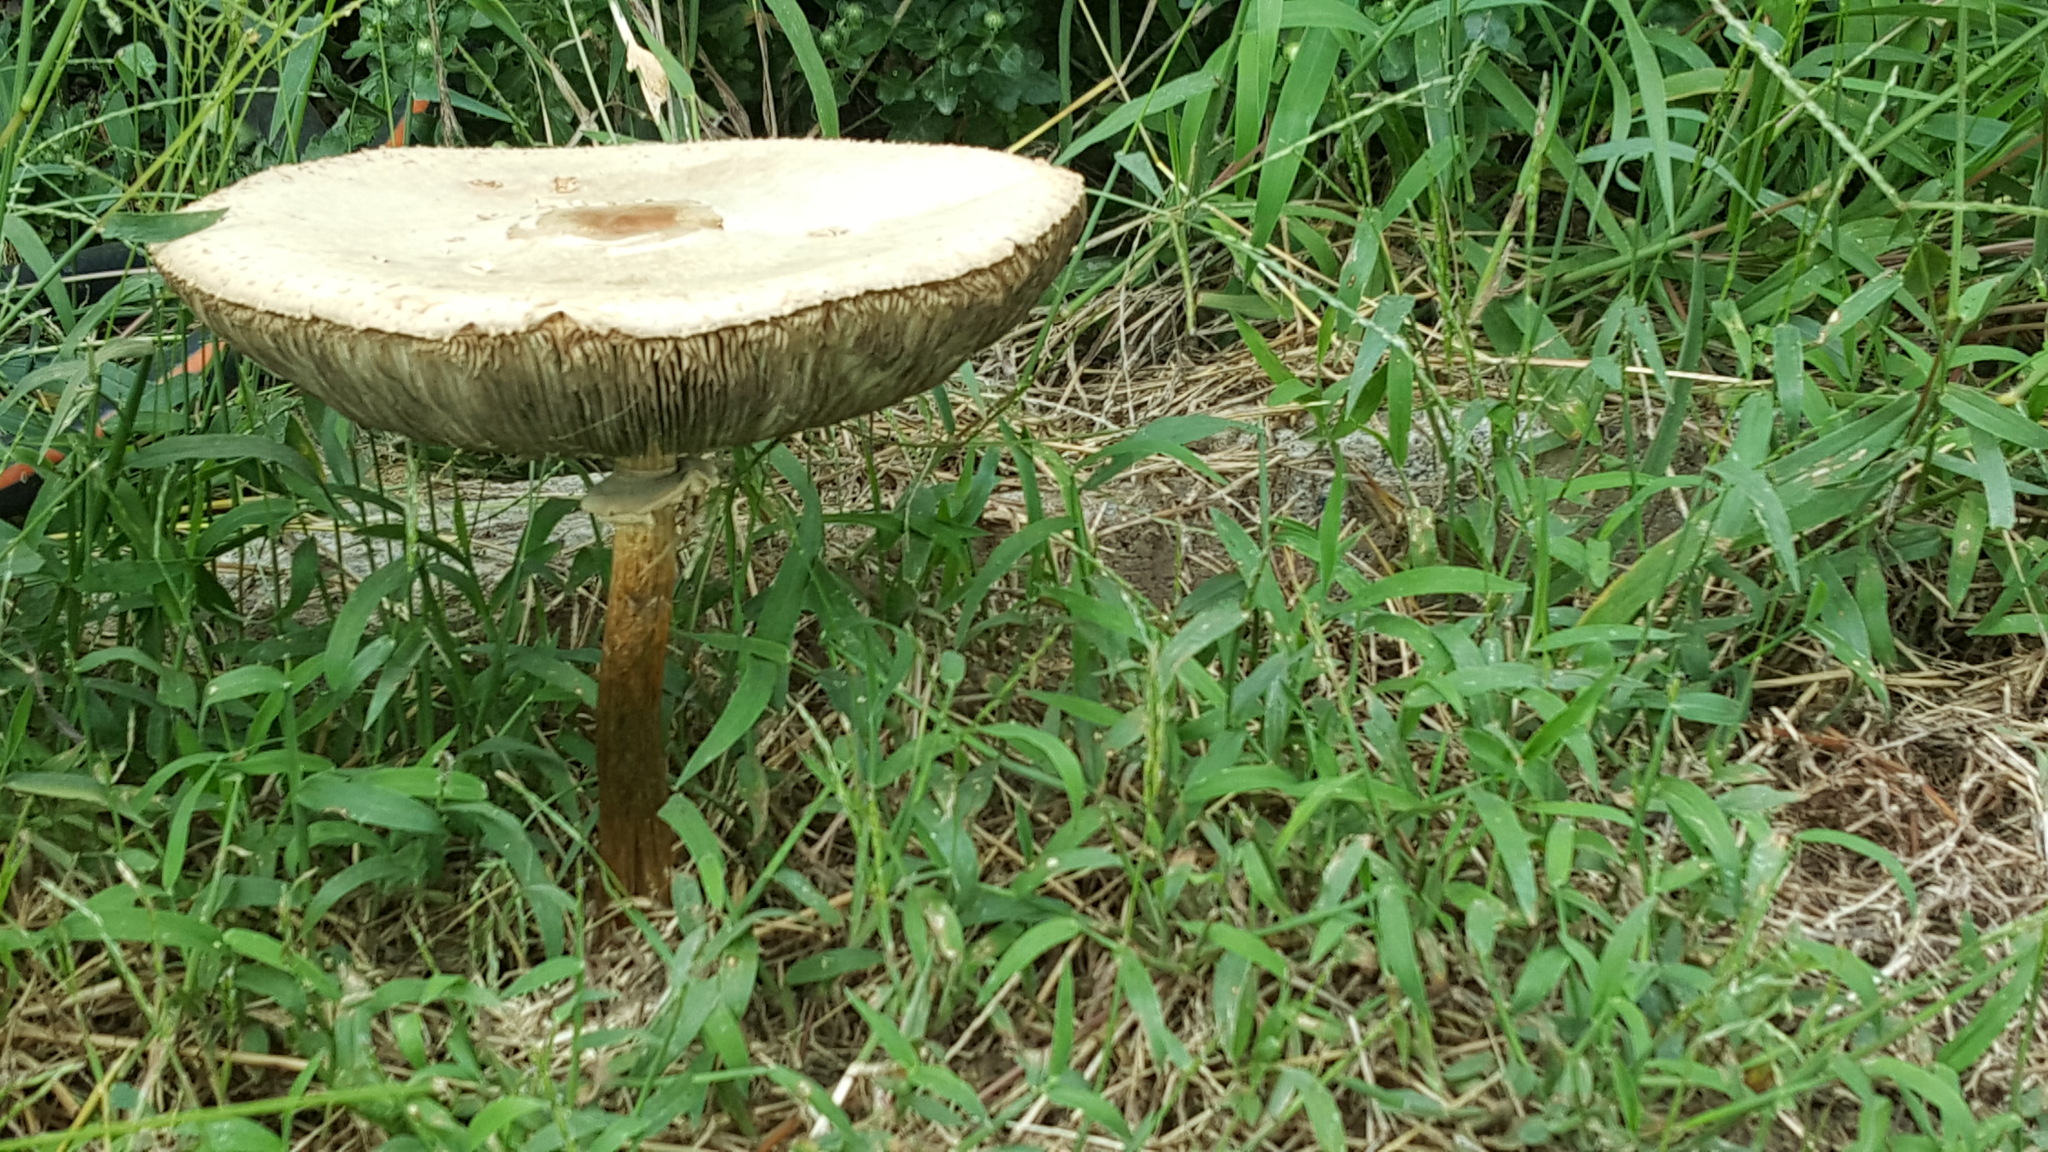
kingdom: Fungi
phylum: Basidiomycota
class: Agaricomycetes
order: Agaricales
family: Agaricaceae
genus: Chlorophyllum
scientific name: Chlorophyllum molybdites
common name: False parasol
